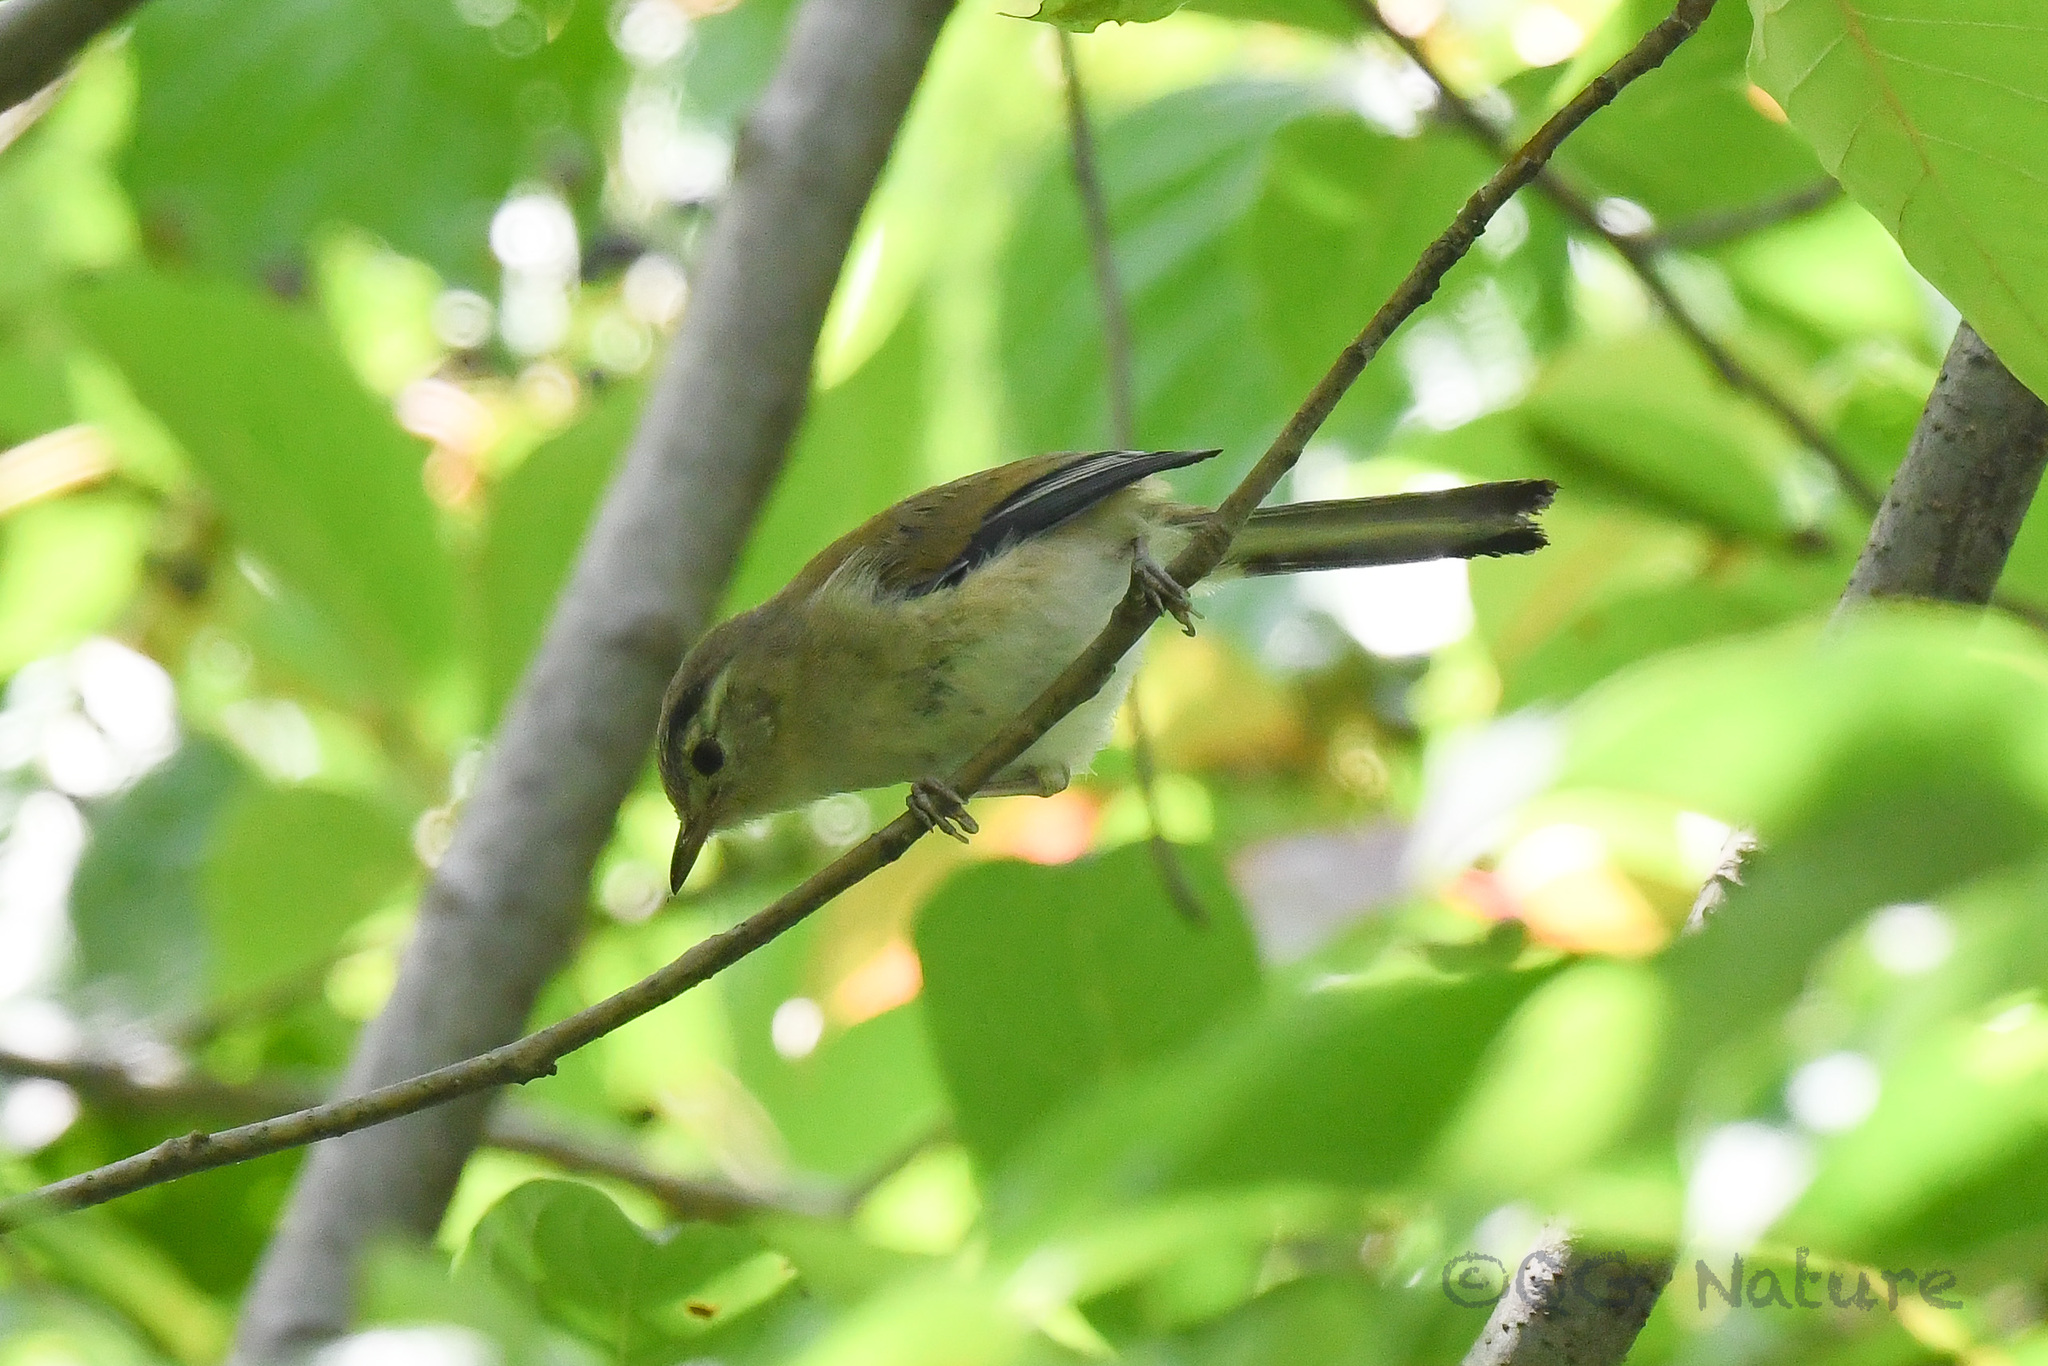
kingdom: Animalia
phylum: Chordata
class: Aves
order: Passeriformes
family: Leiothrichidae
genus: Minla
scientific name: Minla cyanouroptera
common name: Blue-winged minla
